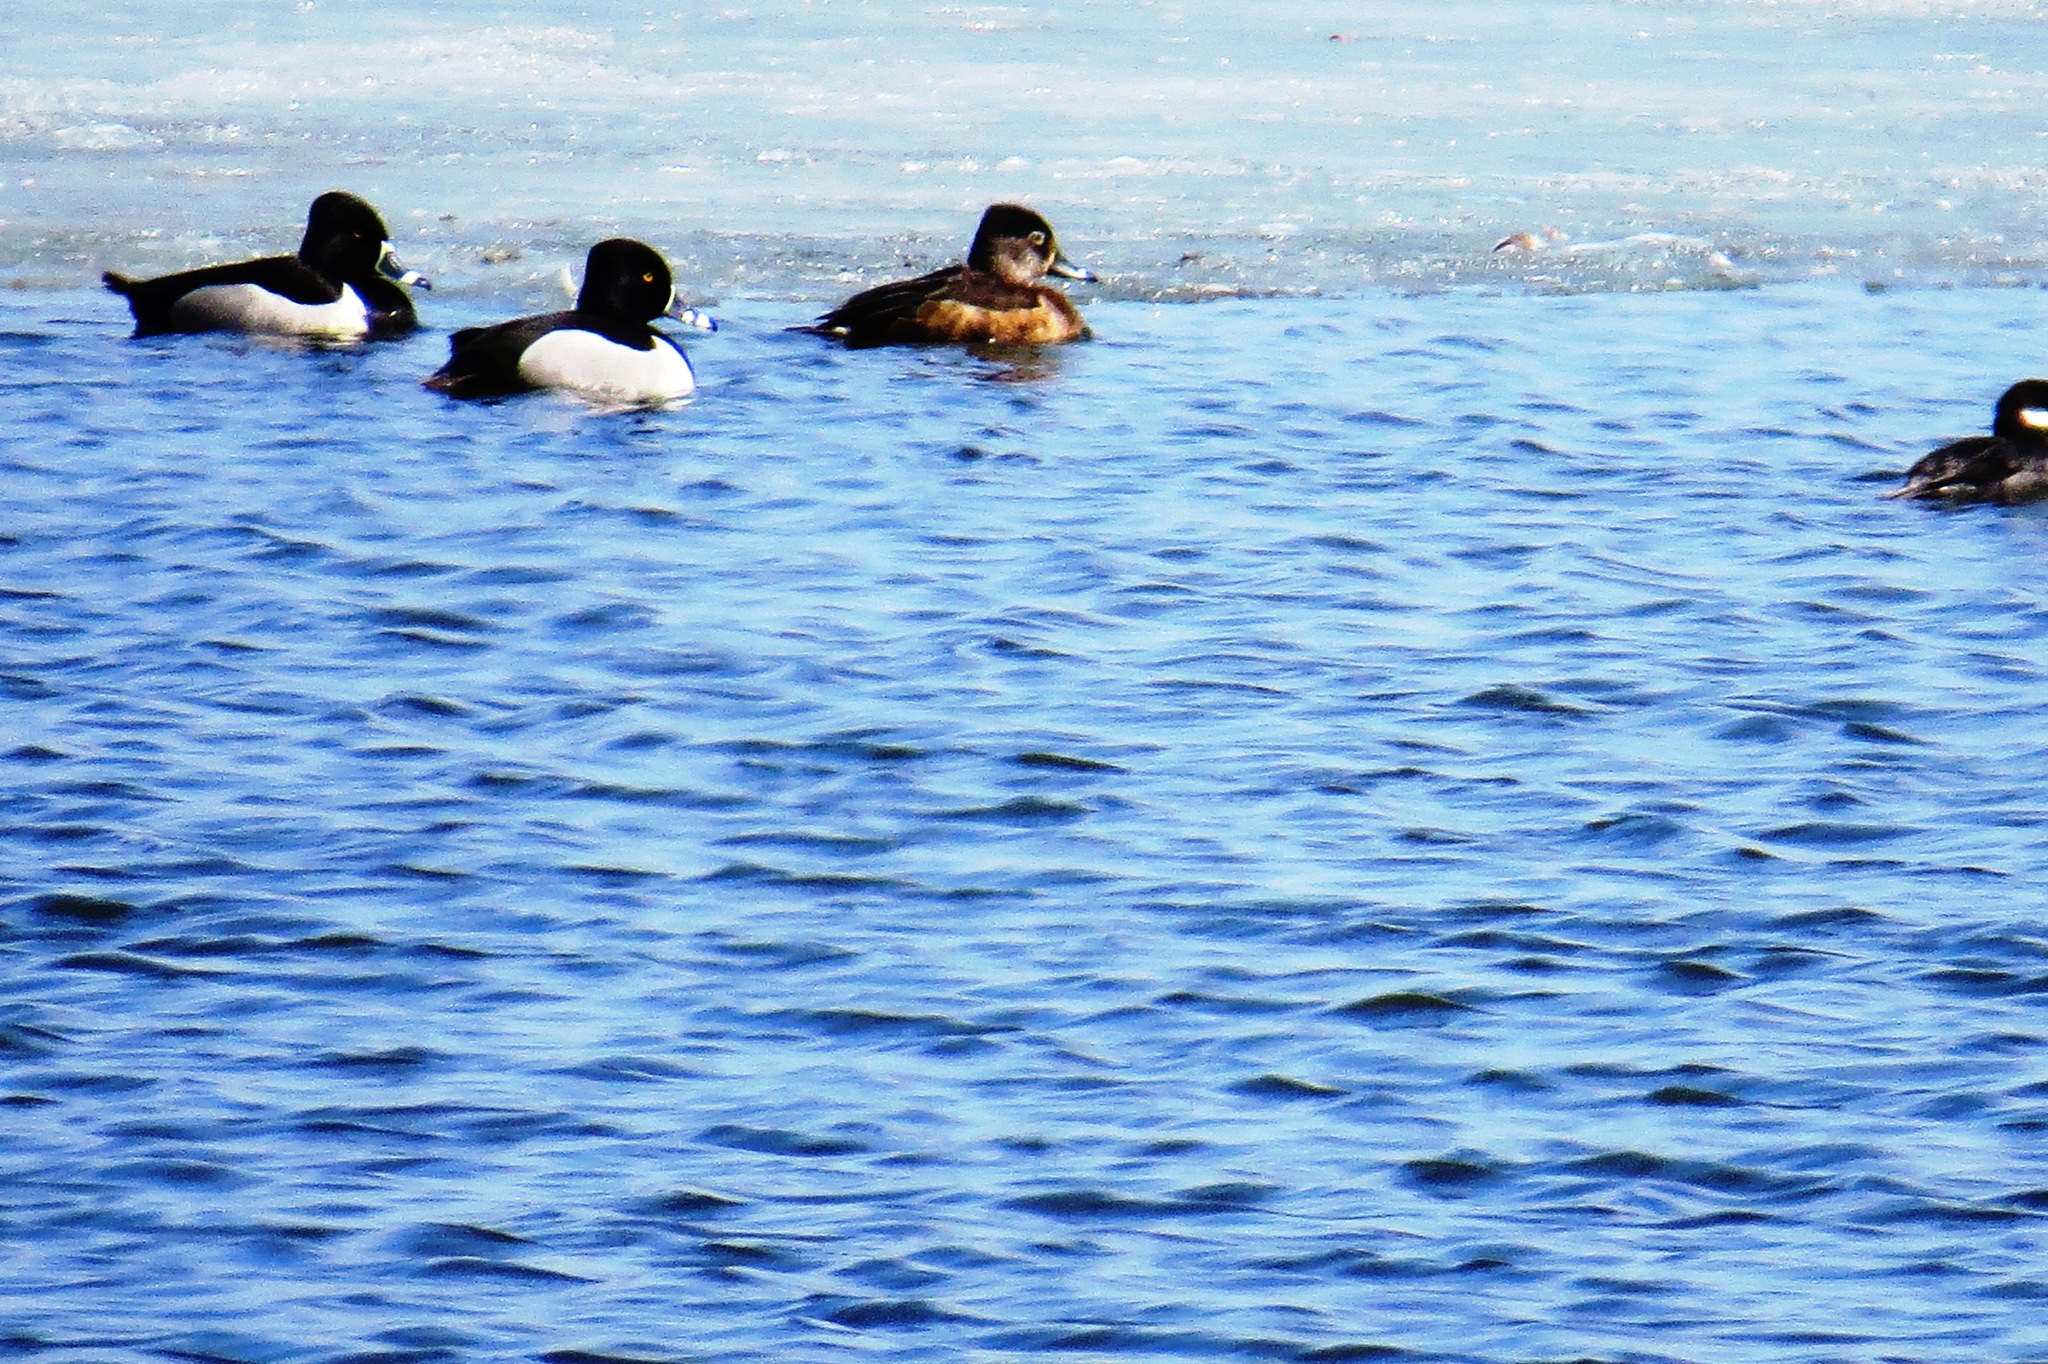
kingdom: Animalia
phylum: Chordata
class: Aves
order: Anseriformes
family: Anatidae
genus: Aythya
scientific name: Aythya collaris
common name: Ring-necked duck
